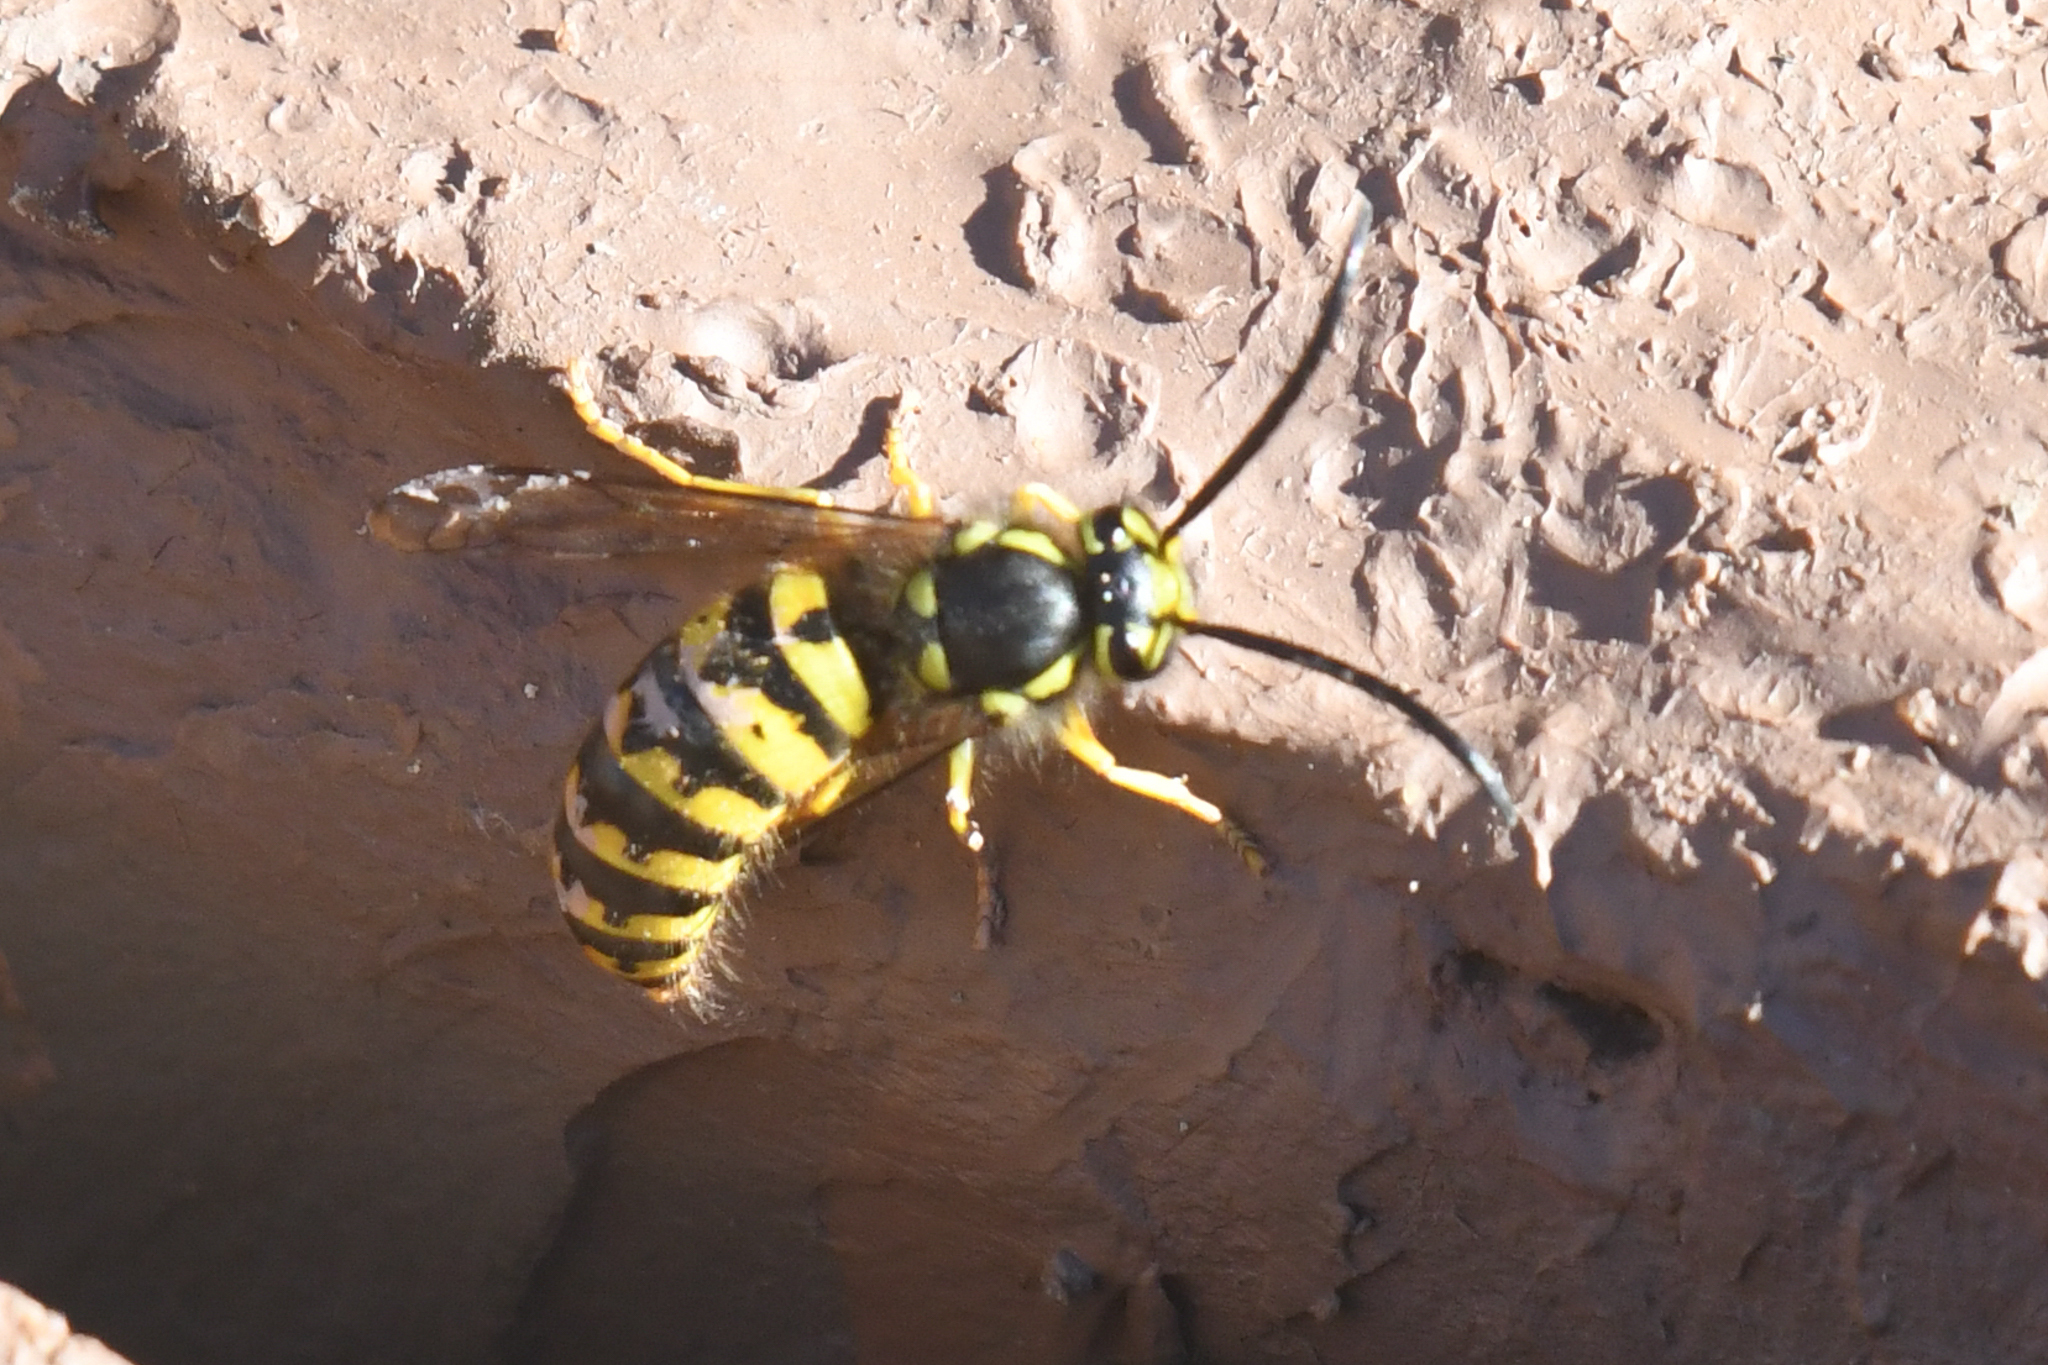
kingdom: Animalia
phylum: Arthropoda
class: Insecta
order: Hymenoptera
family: Vespidae
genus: Vespula
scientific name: Vespula pensylvanica
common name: Western yellowjacket
